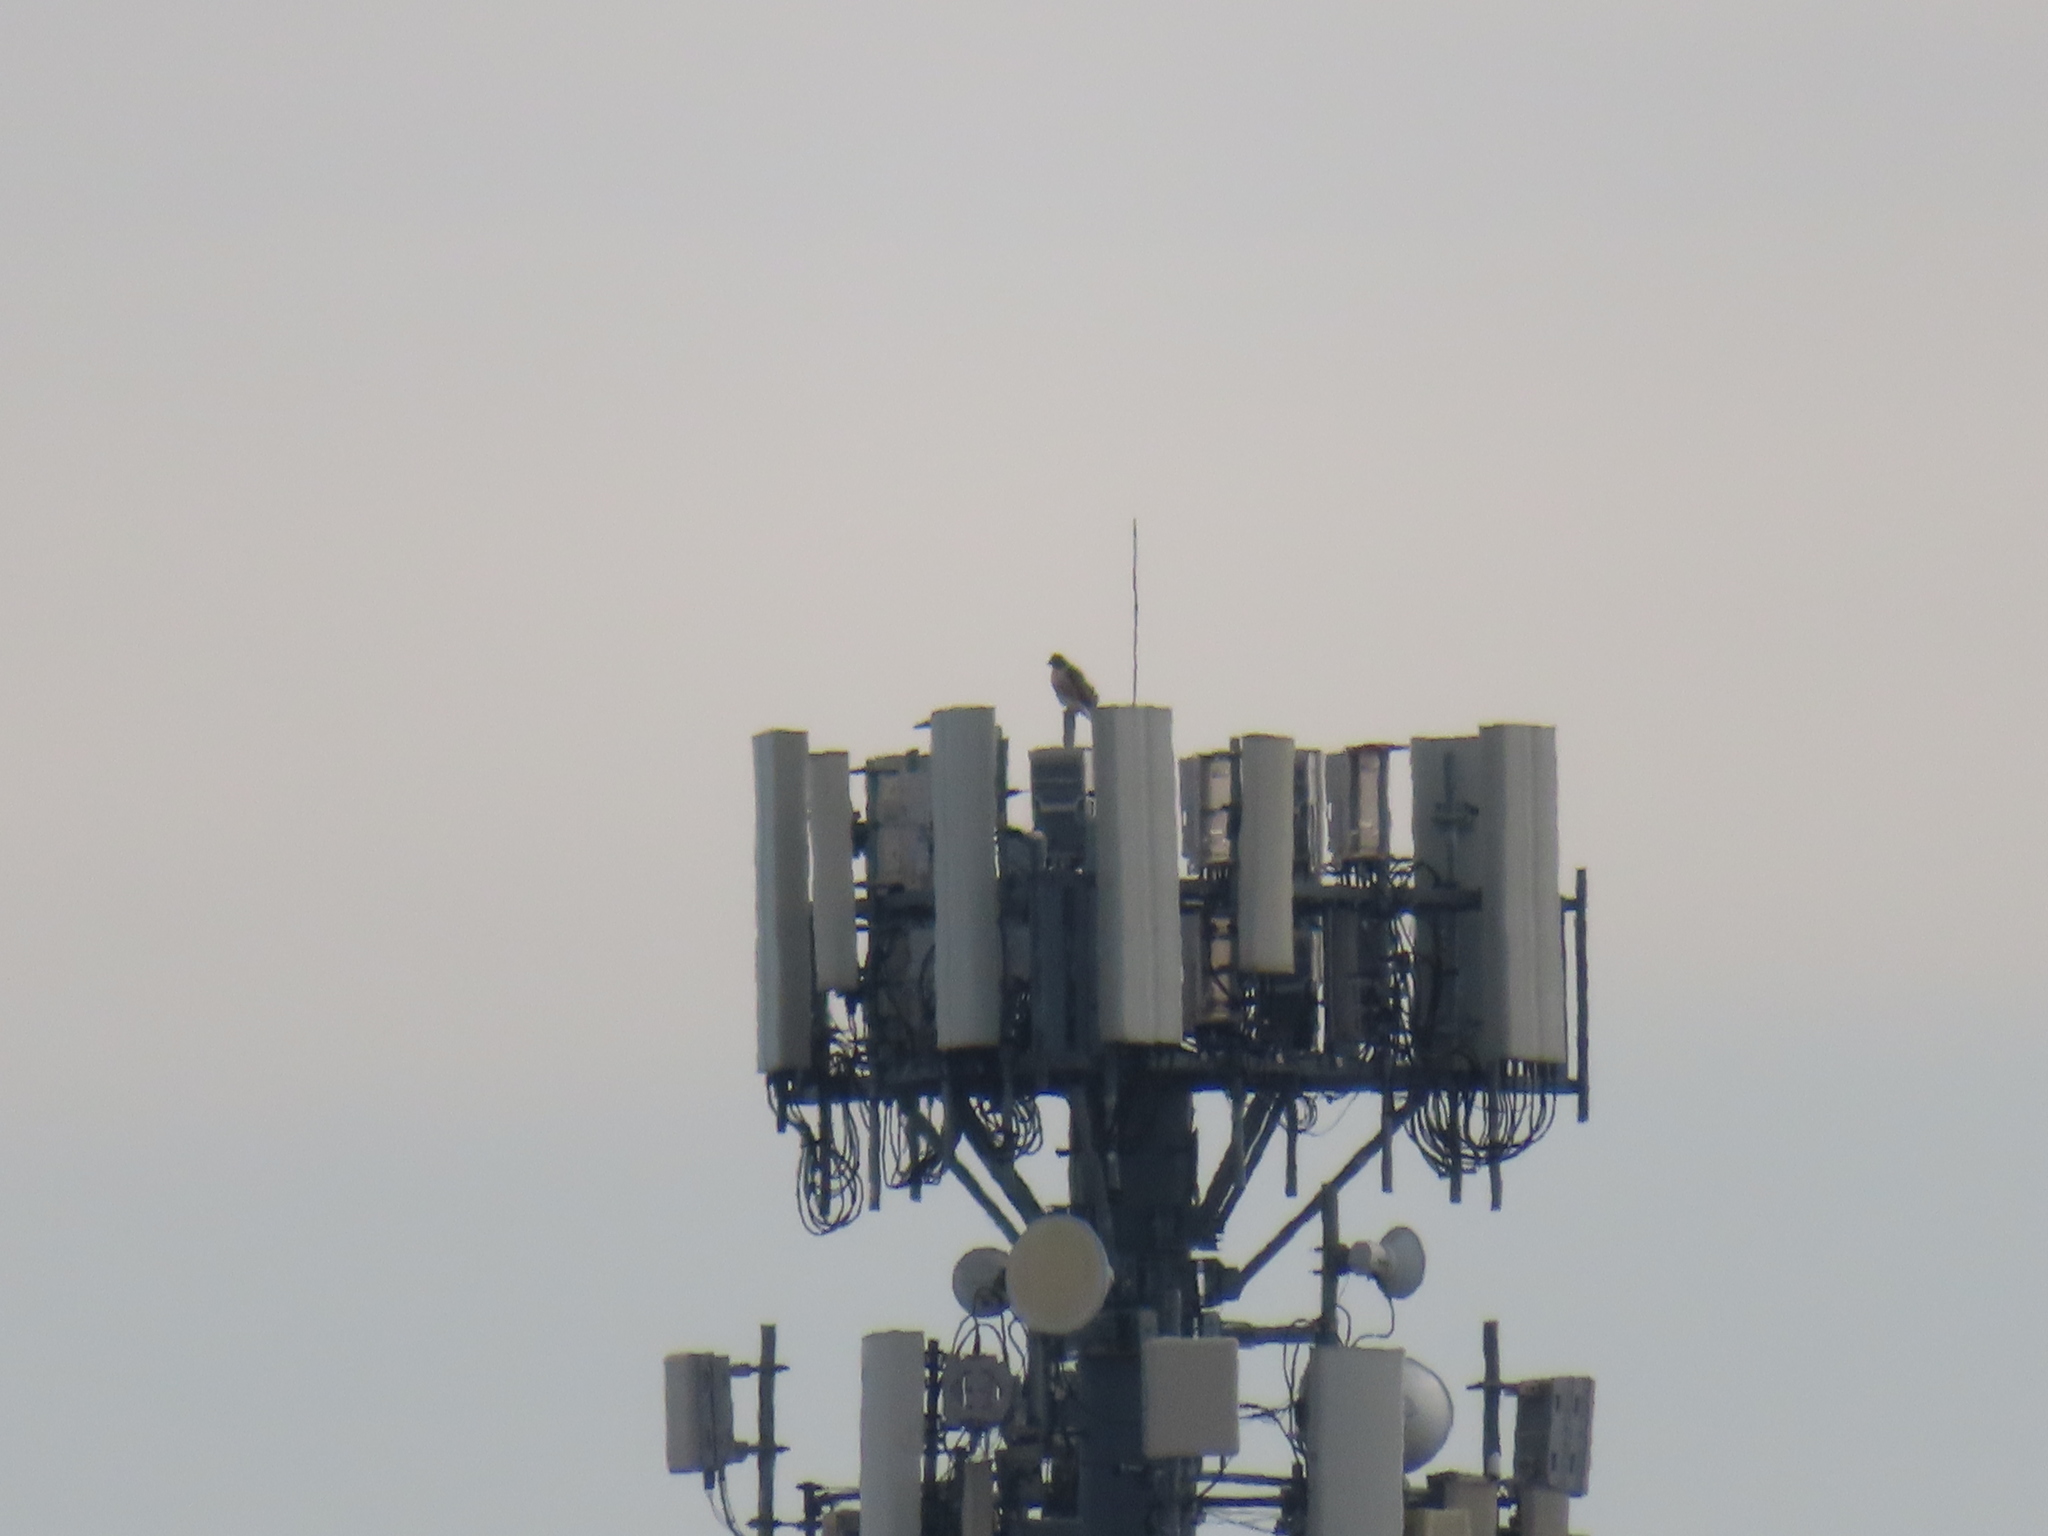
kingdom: Animalia
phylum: Chordata
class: Aves
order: Accipitriformes
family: Accipitridae
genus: Buteo
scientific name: Buteo jamaicensis
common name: Red-tailed hawk
